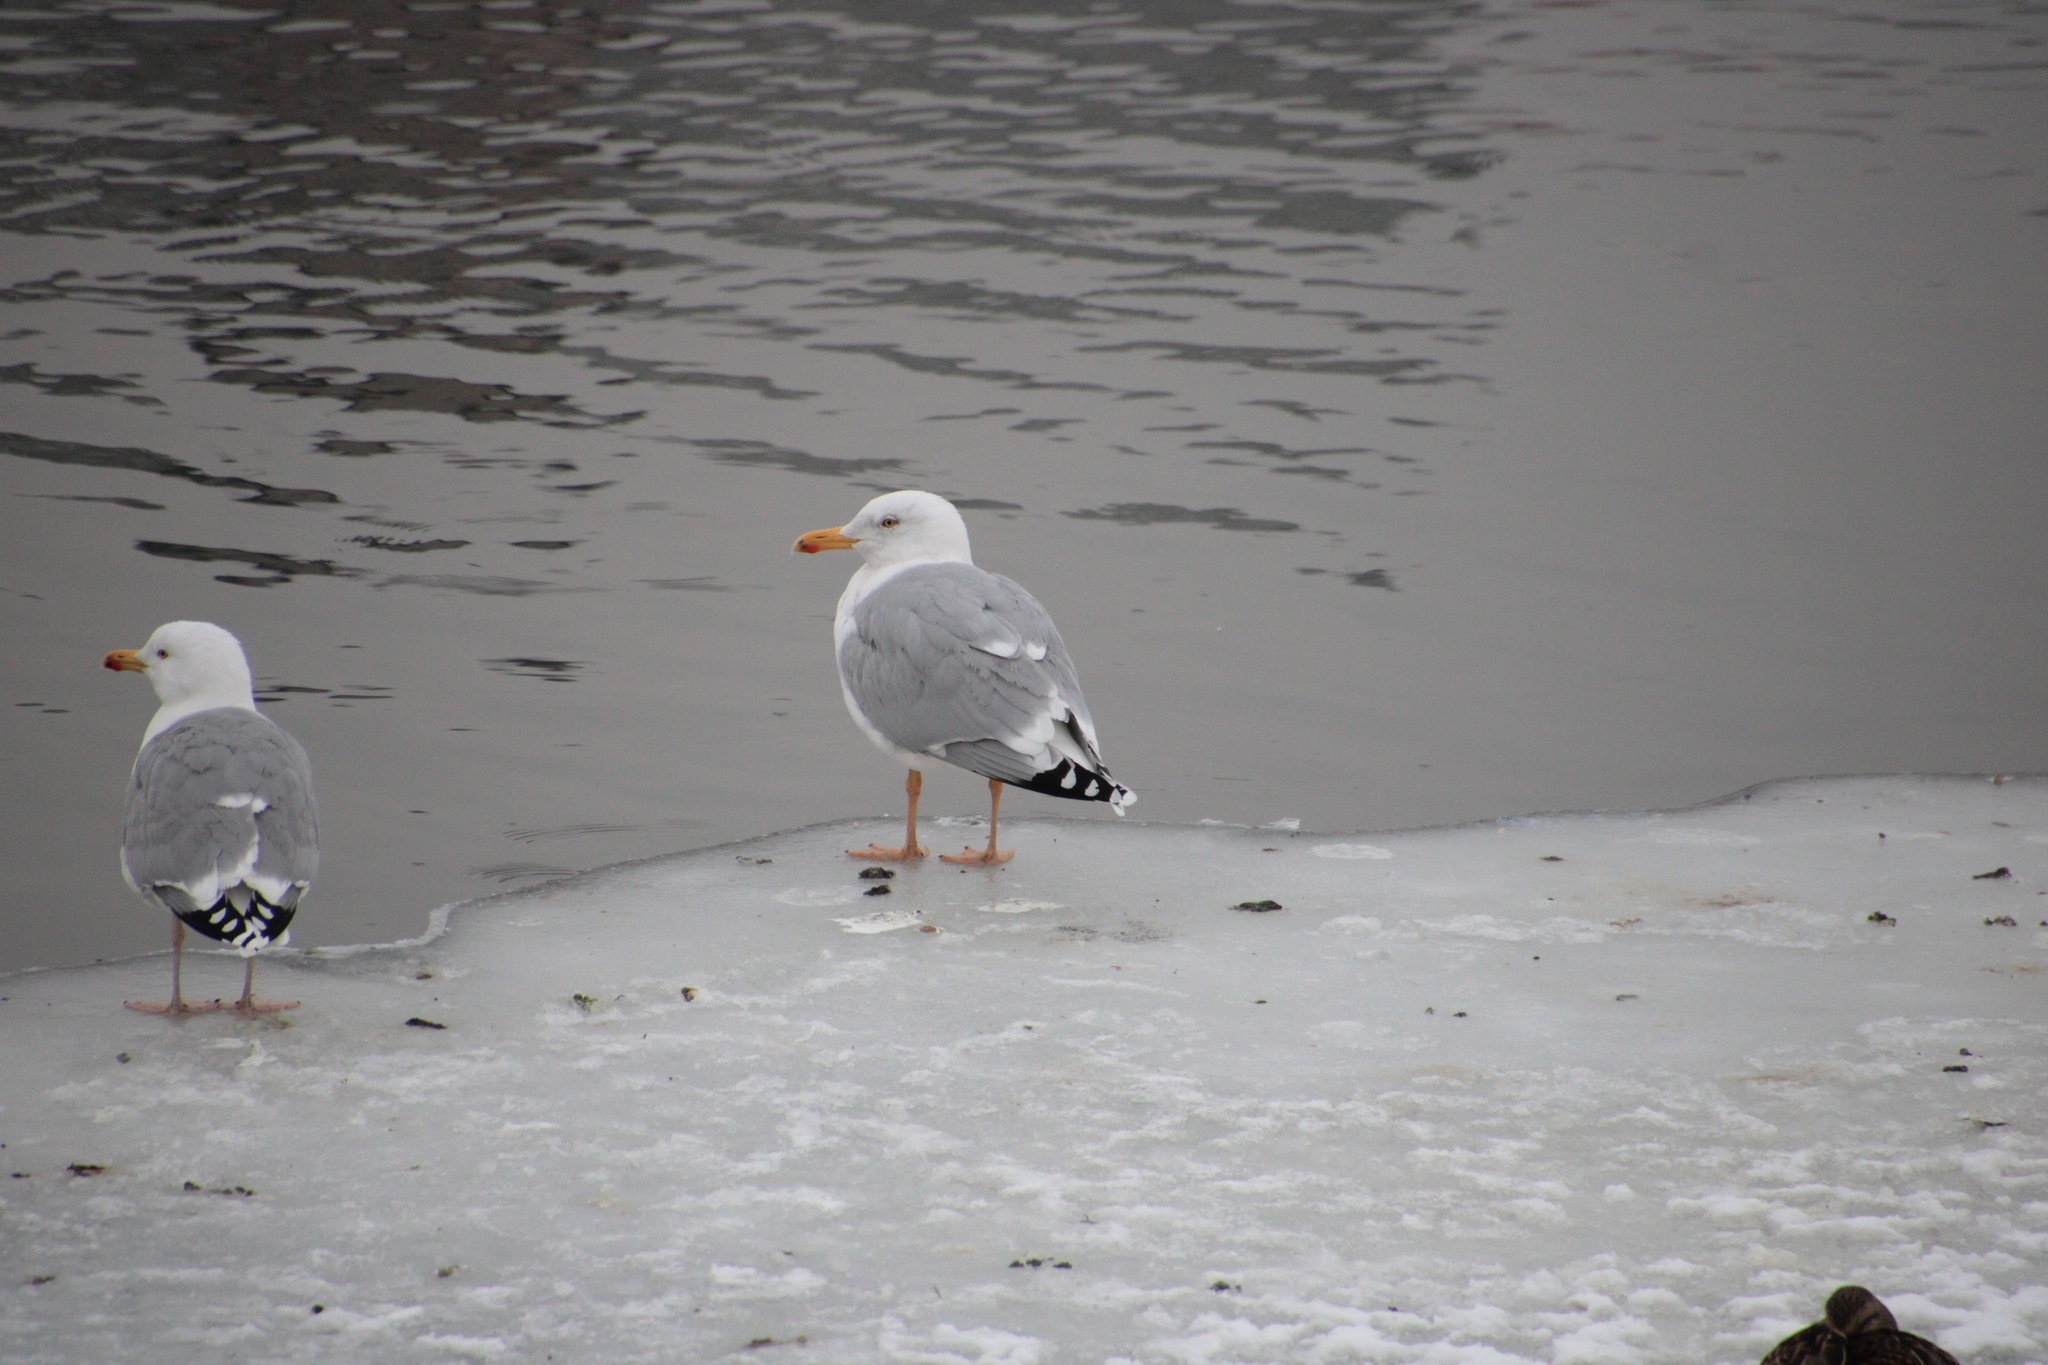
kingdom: Animalia
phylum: Chordata
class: Aves
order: Charadriiformes
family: Laridae
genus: Larus
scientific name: Larus argentatus
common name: Herring gull
